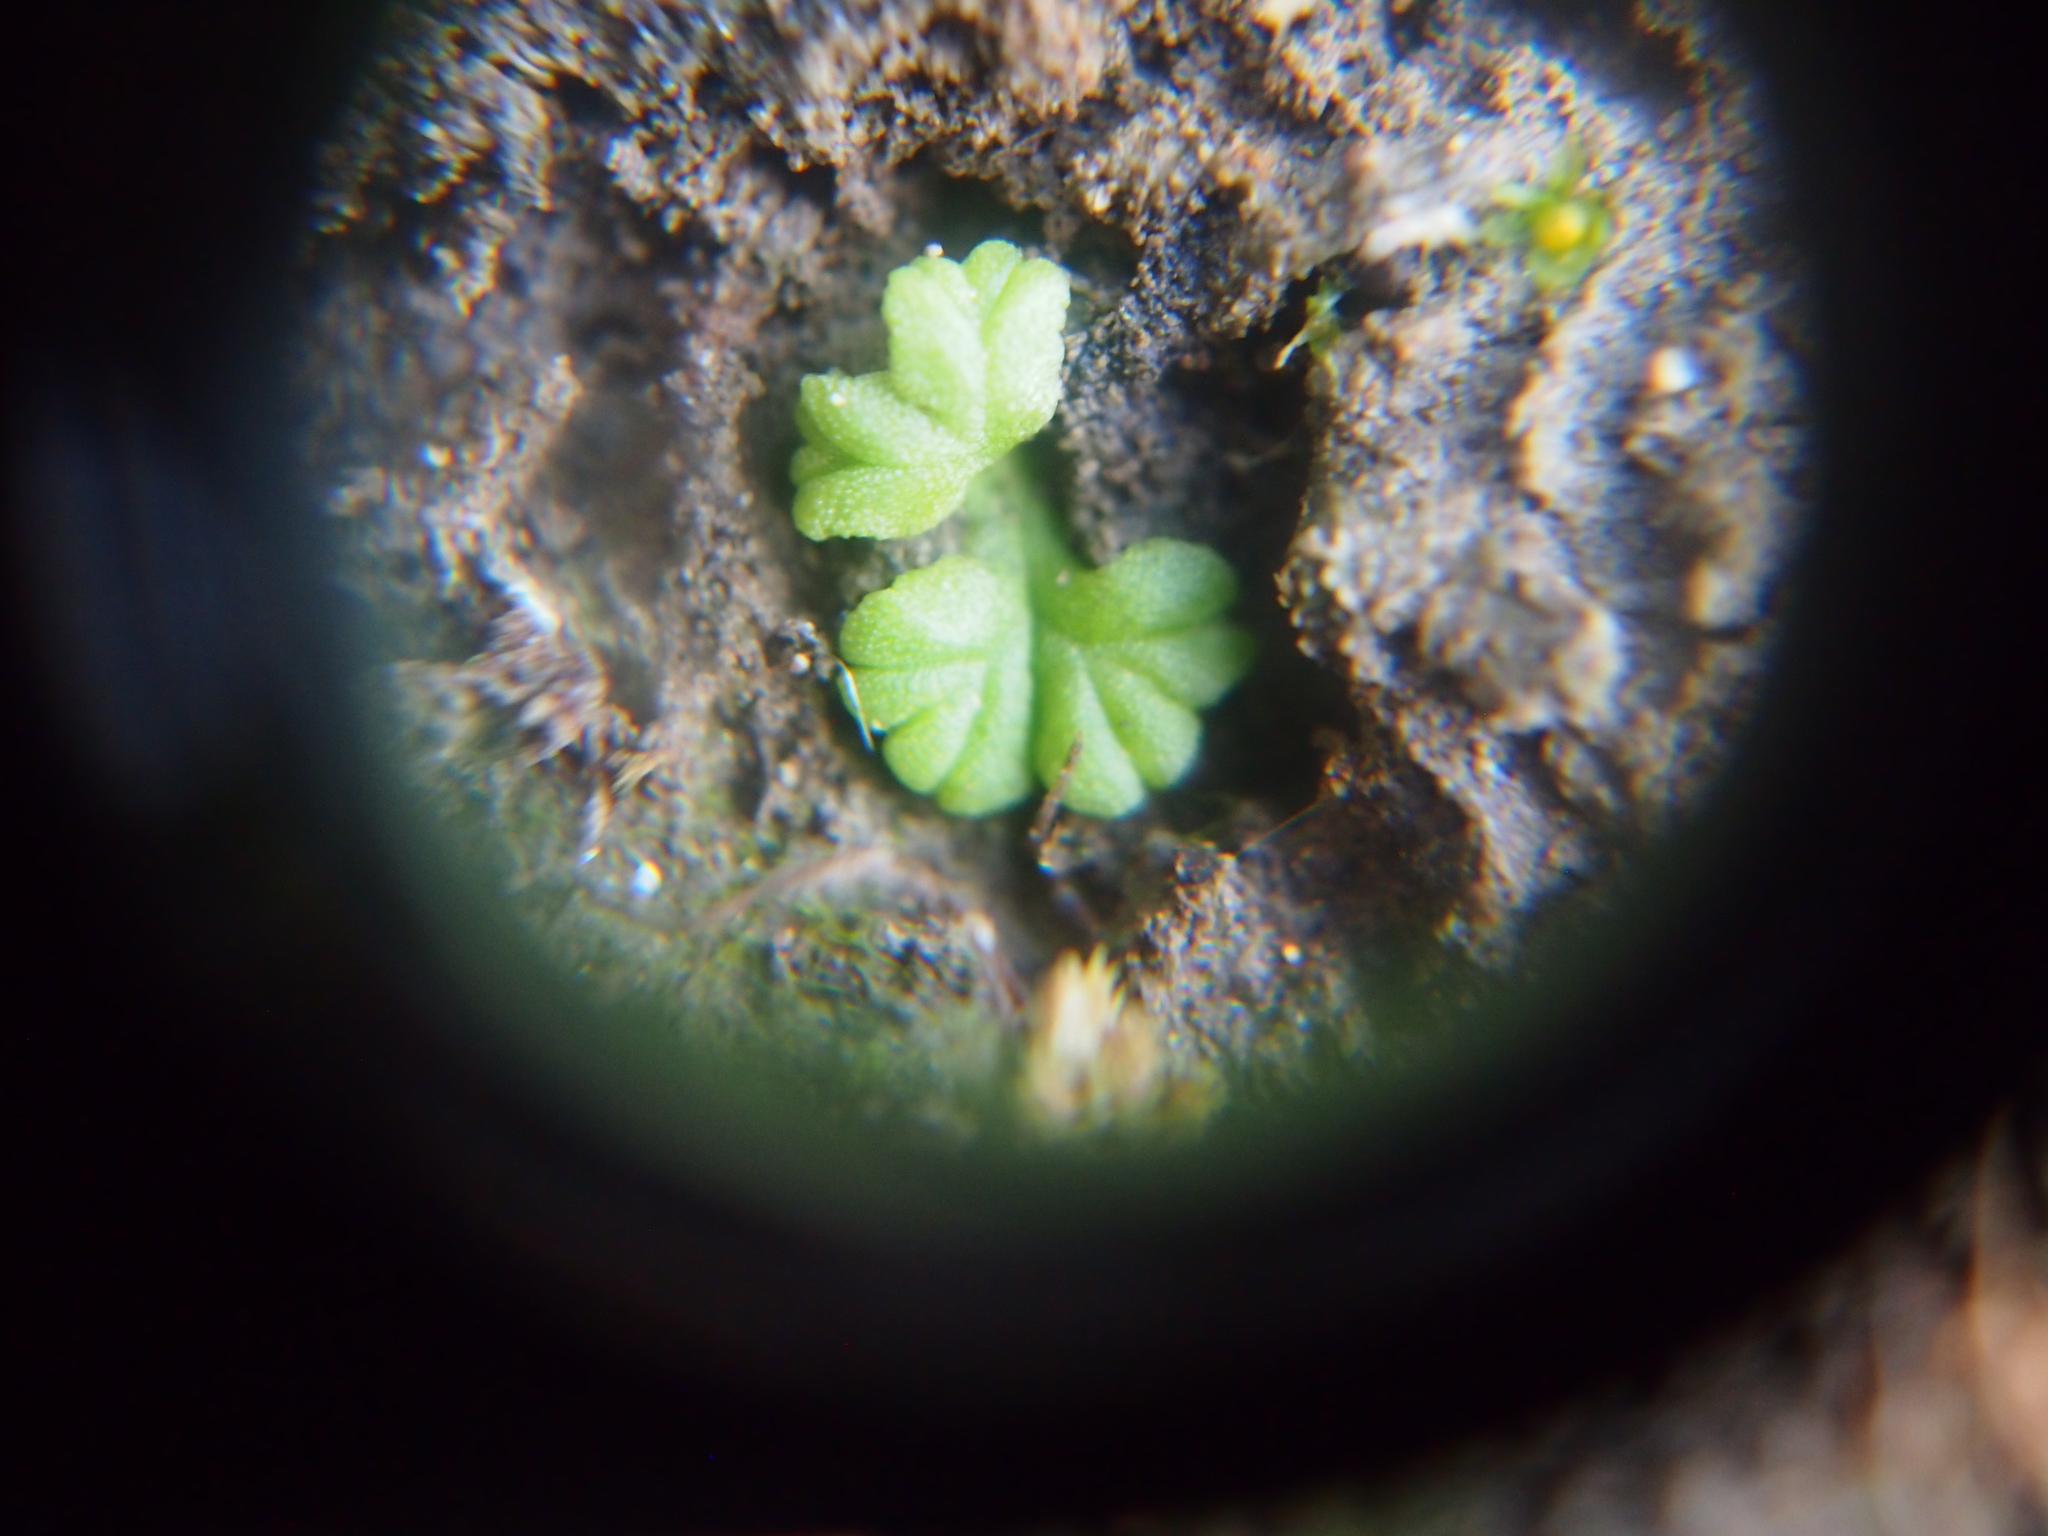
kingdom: Plantae
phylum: Marchantiophyta
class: Marchantiopsida
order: Marchantiales
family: Ricciaceae
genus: Ricciocarpos
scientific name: Ricciocarpos natans
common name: Purple-fringed liverwort
